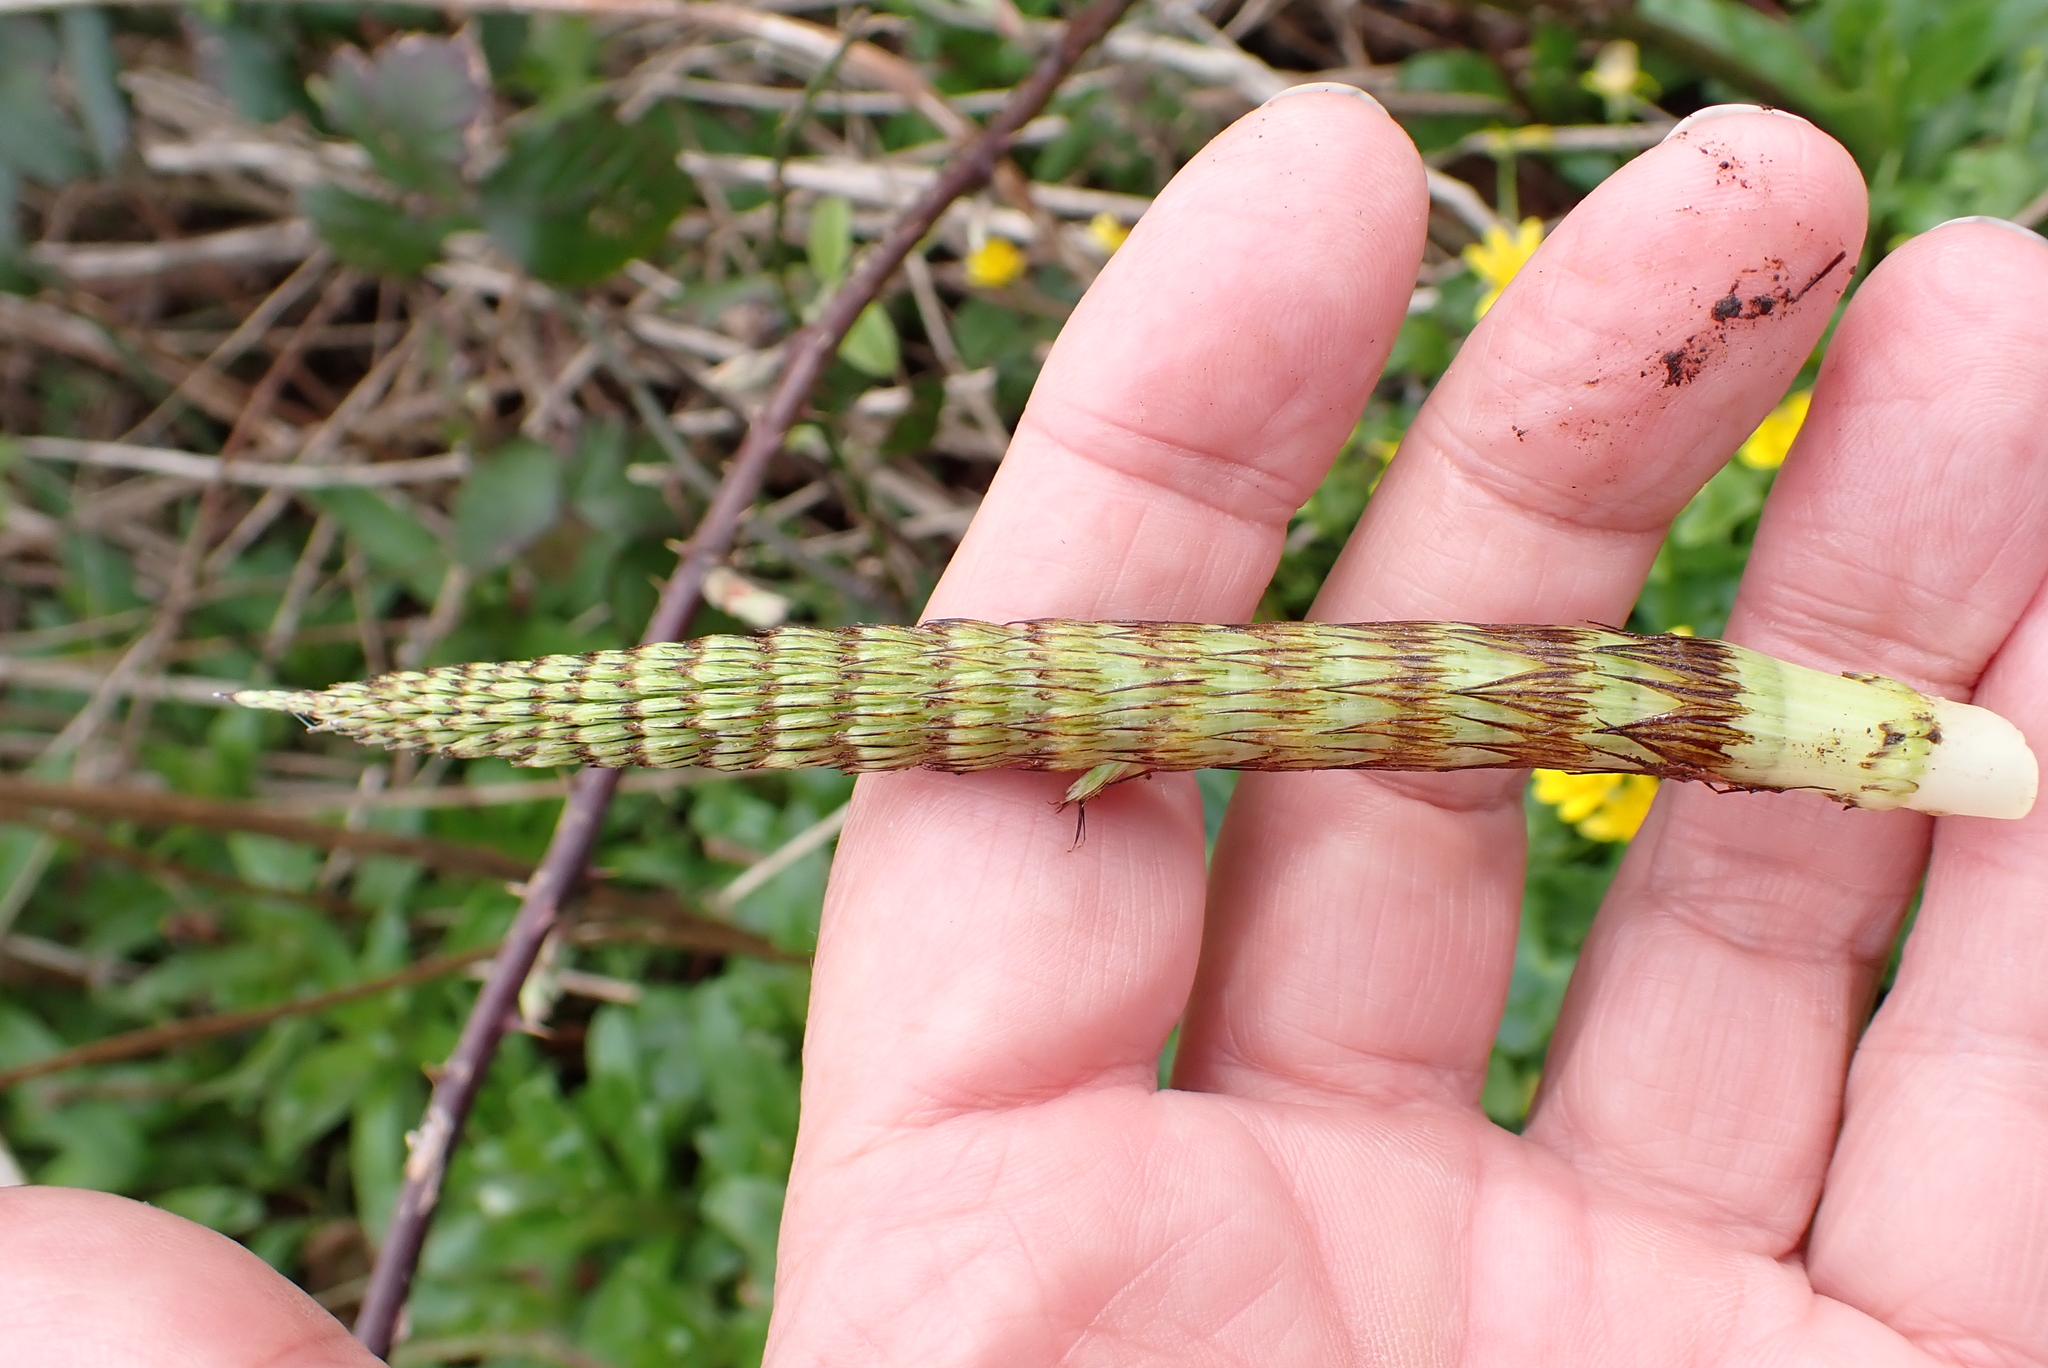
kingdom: Plantae
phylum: Tracheophyta
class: Polypodiopsida
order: Equisetales
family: Equisetaceae
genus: Equisetum
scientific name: Equisetum telmateia
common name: Great horsetail
